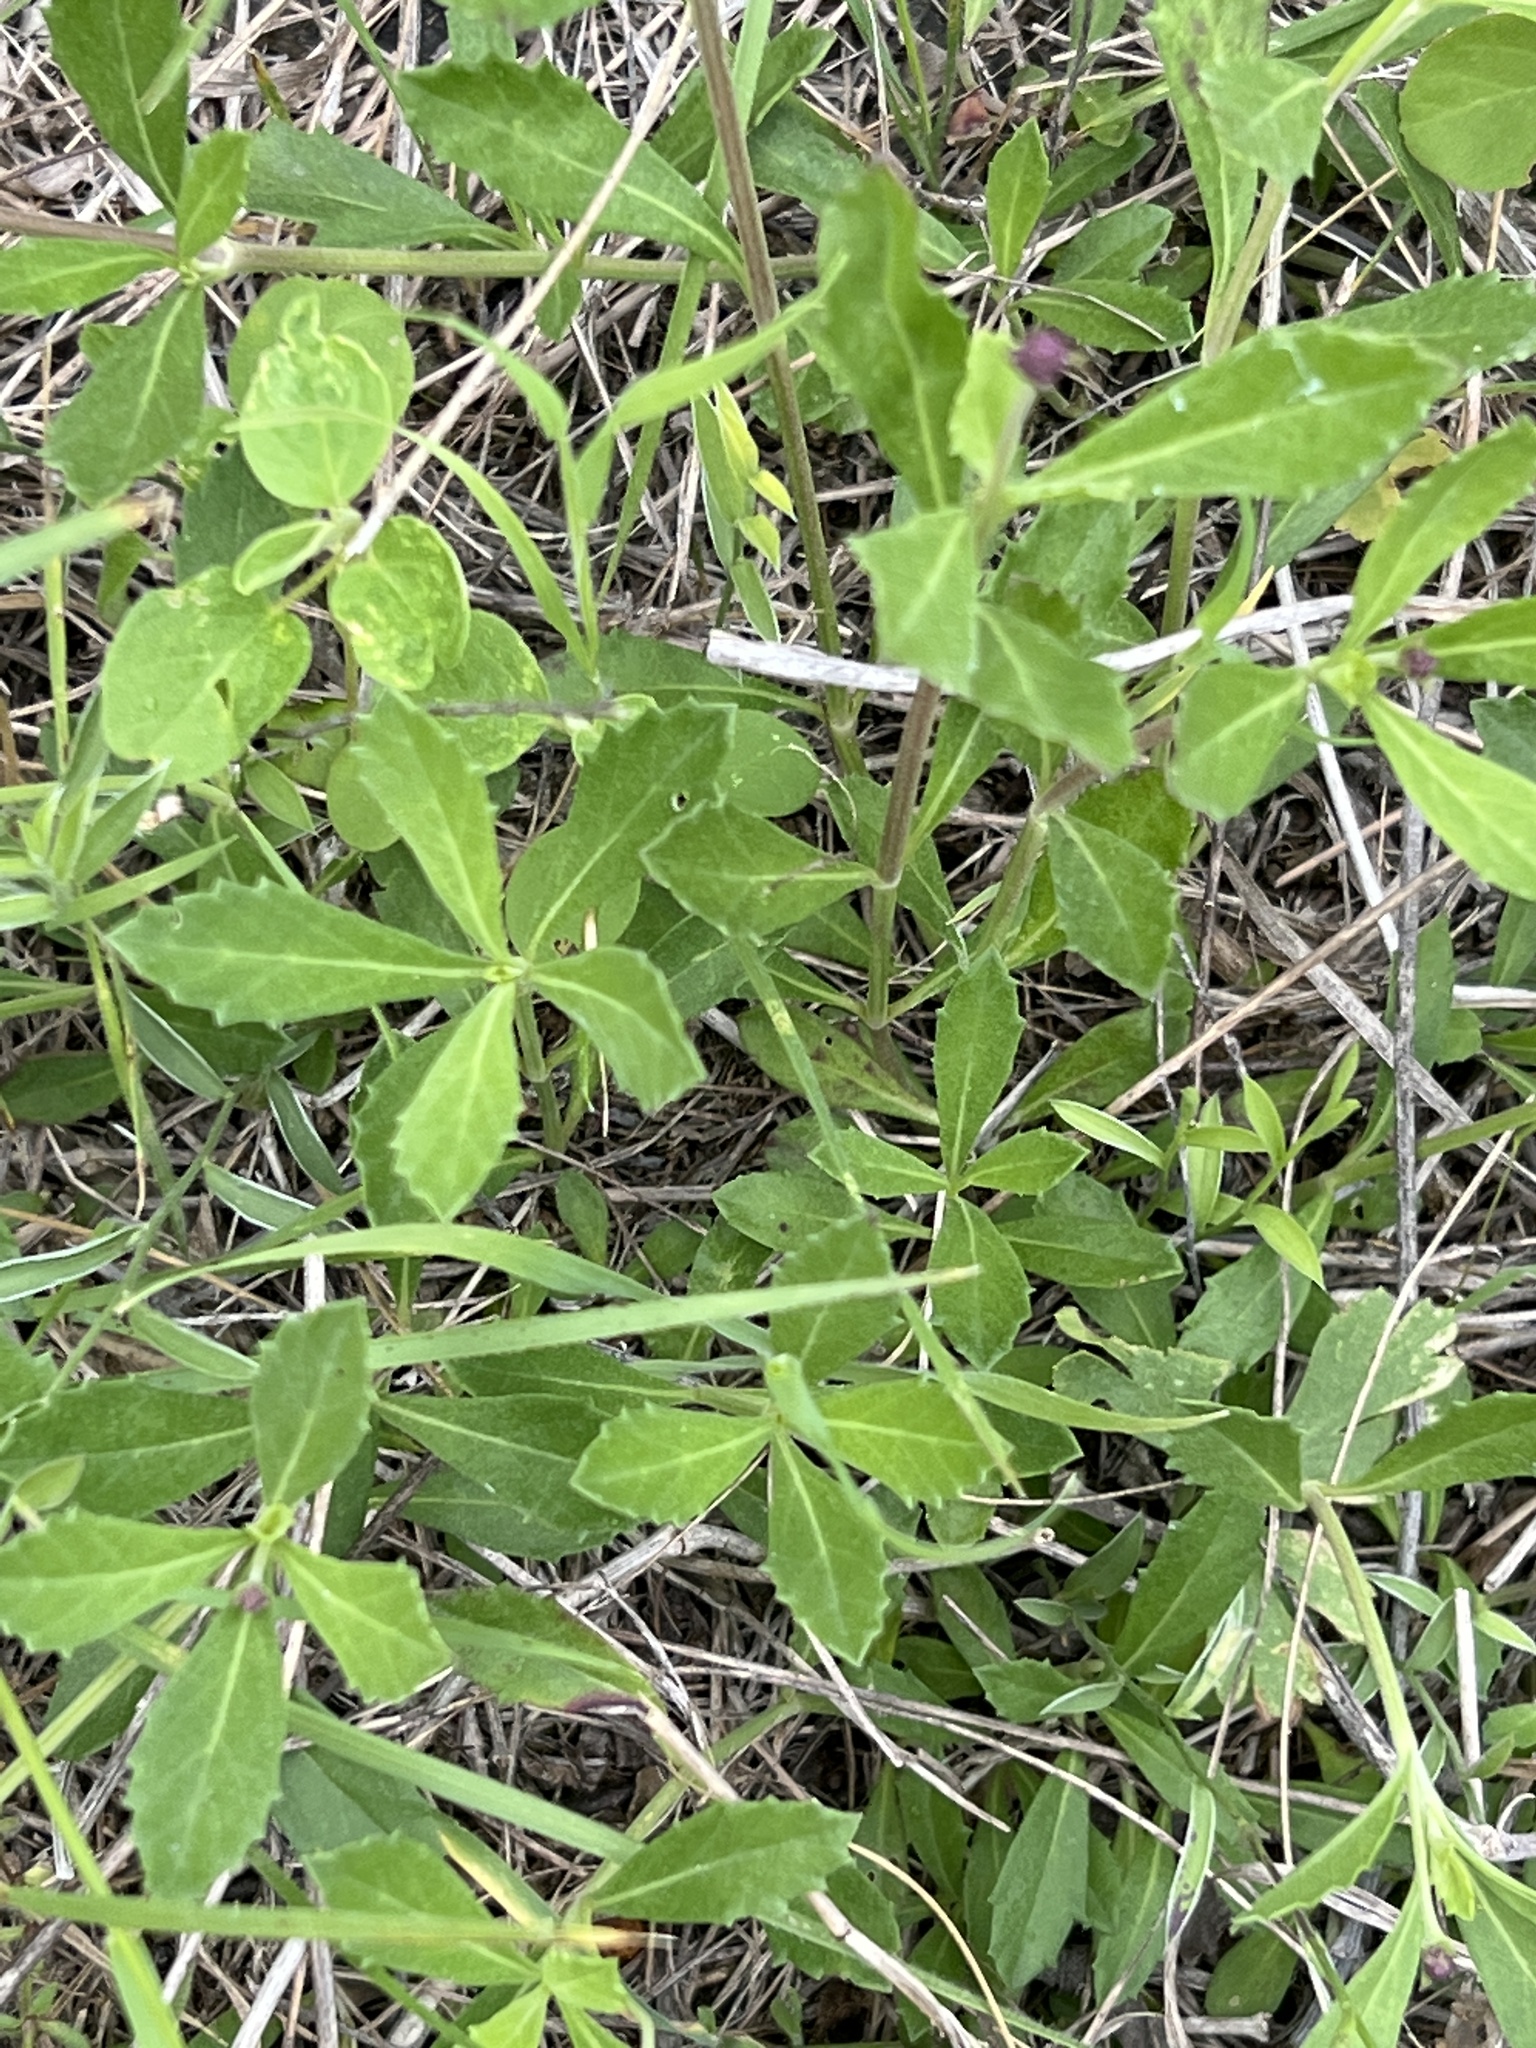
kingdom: Plantae
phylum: Tracheophyta
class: Magnoliopsida
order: Lamiales
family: Verbenaceae
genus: Phyla
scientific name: Phyla nodiflora
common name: Frogfruit
